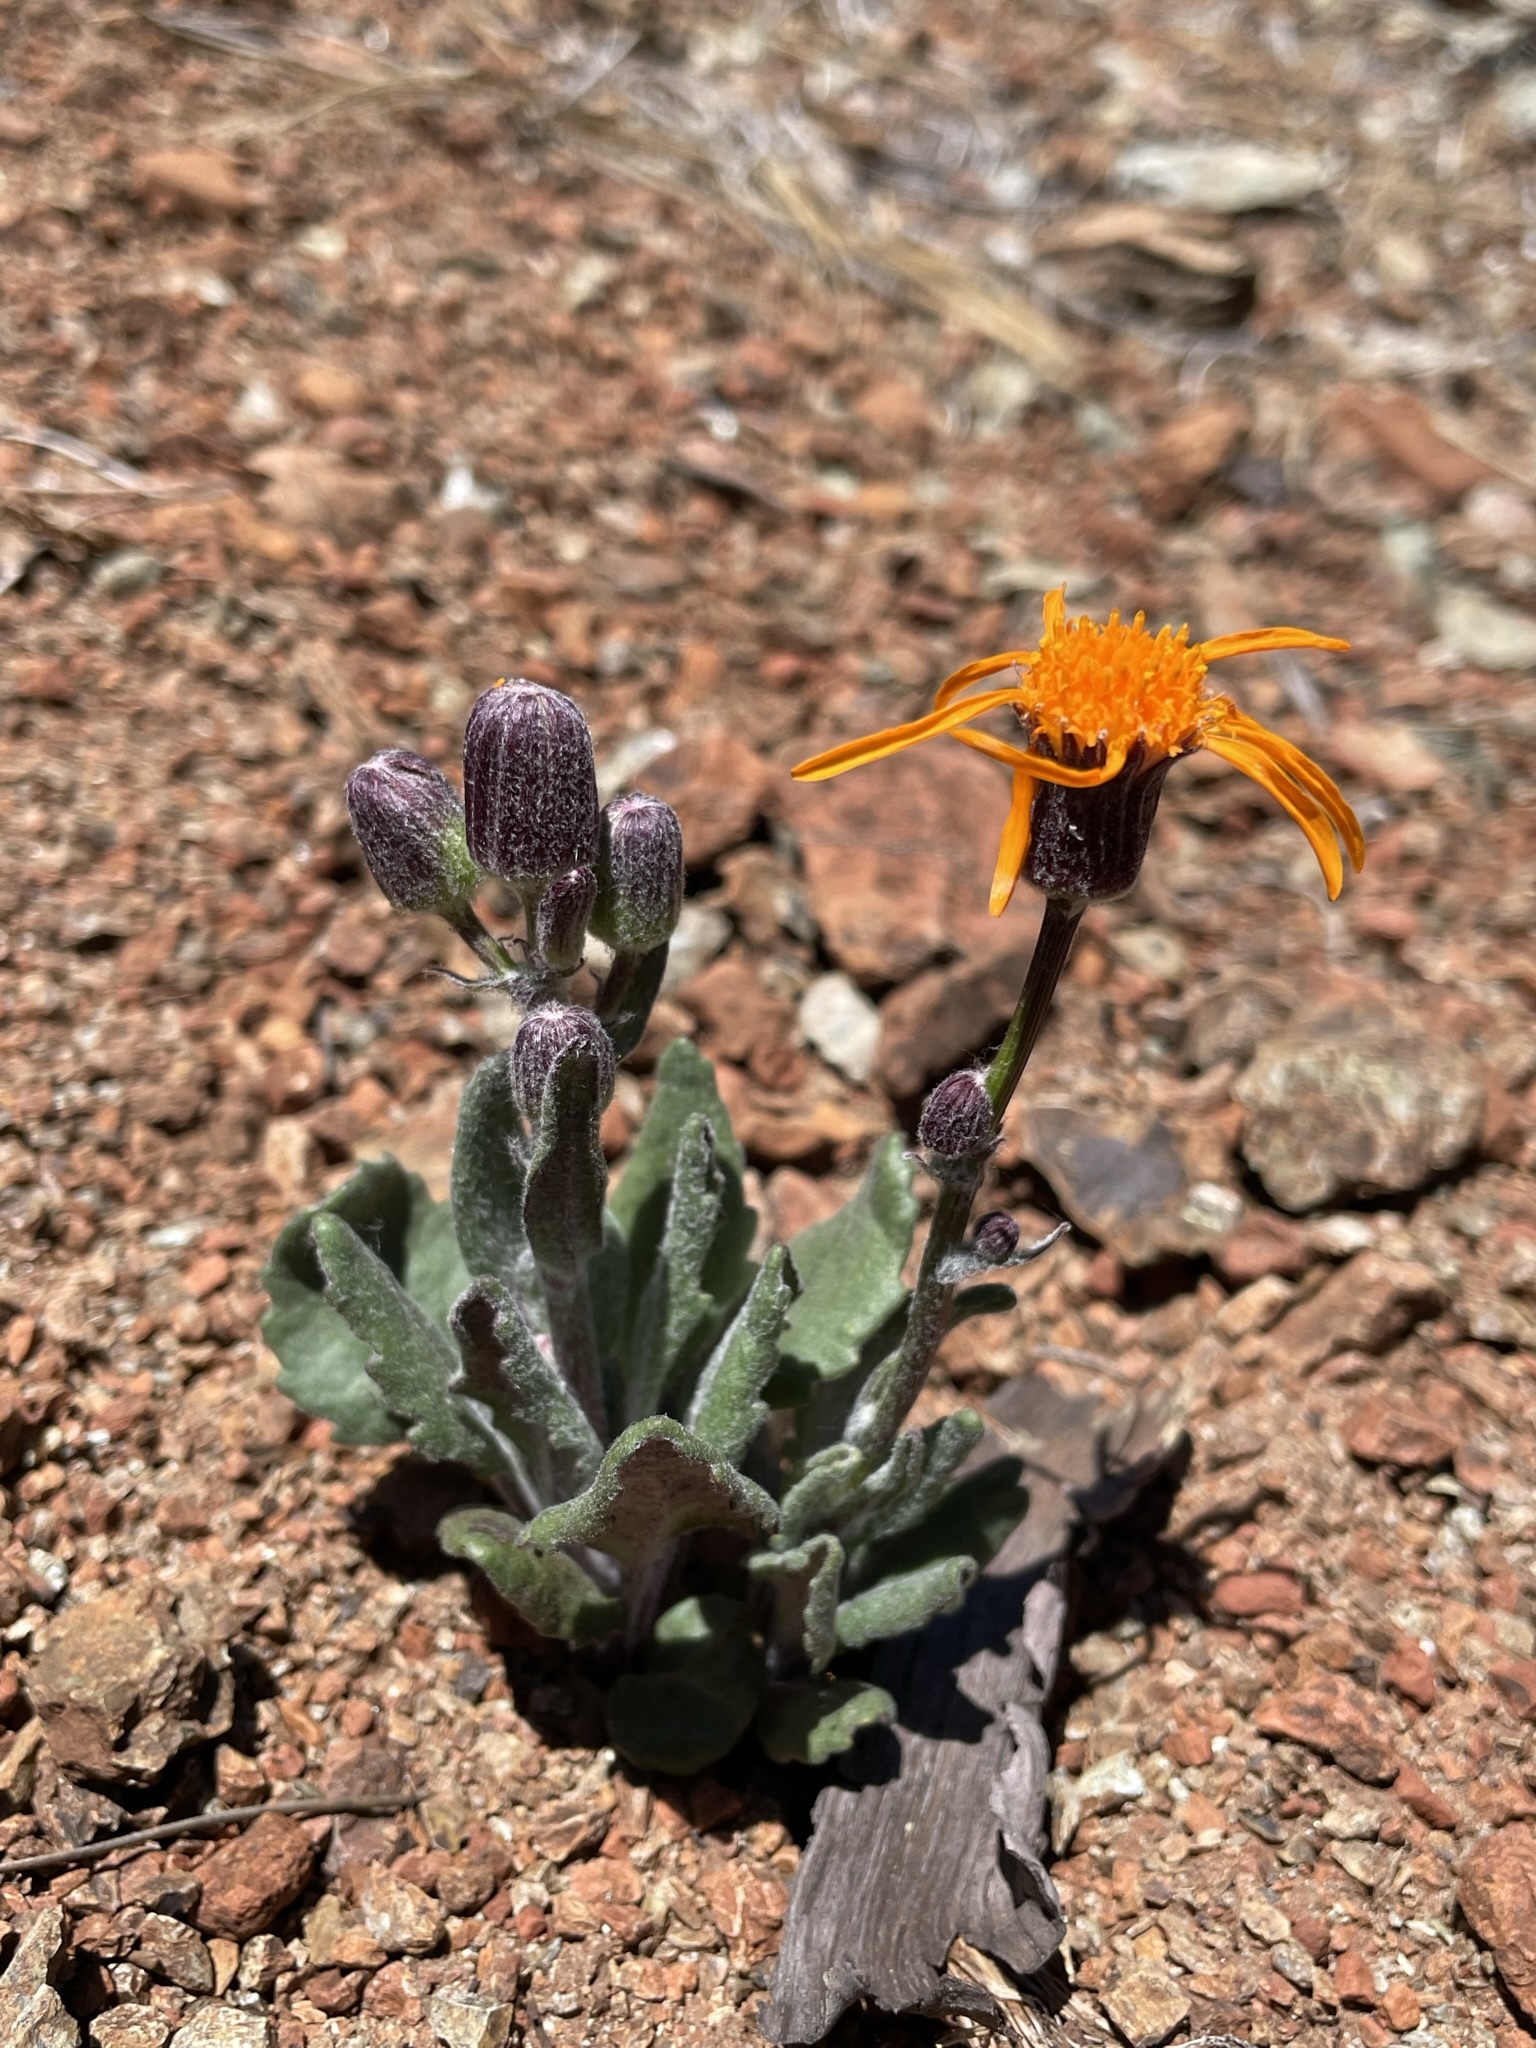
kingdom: Plantae
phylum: Tracheophyta
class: Magnoliopsida
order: Asterales
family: Asteraceae
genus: Packera
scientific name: Packera greenei
